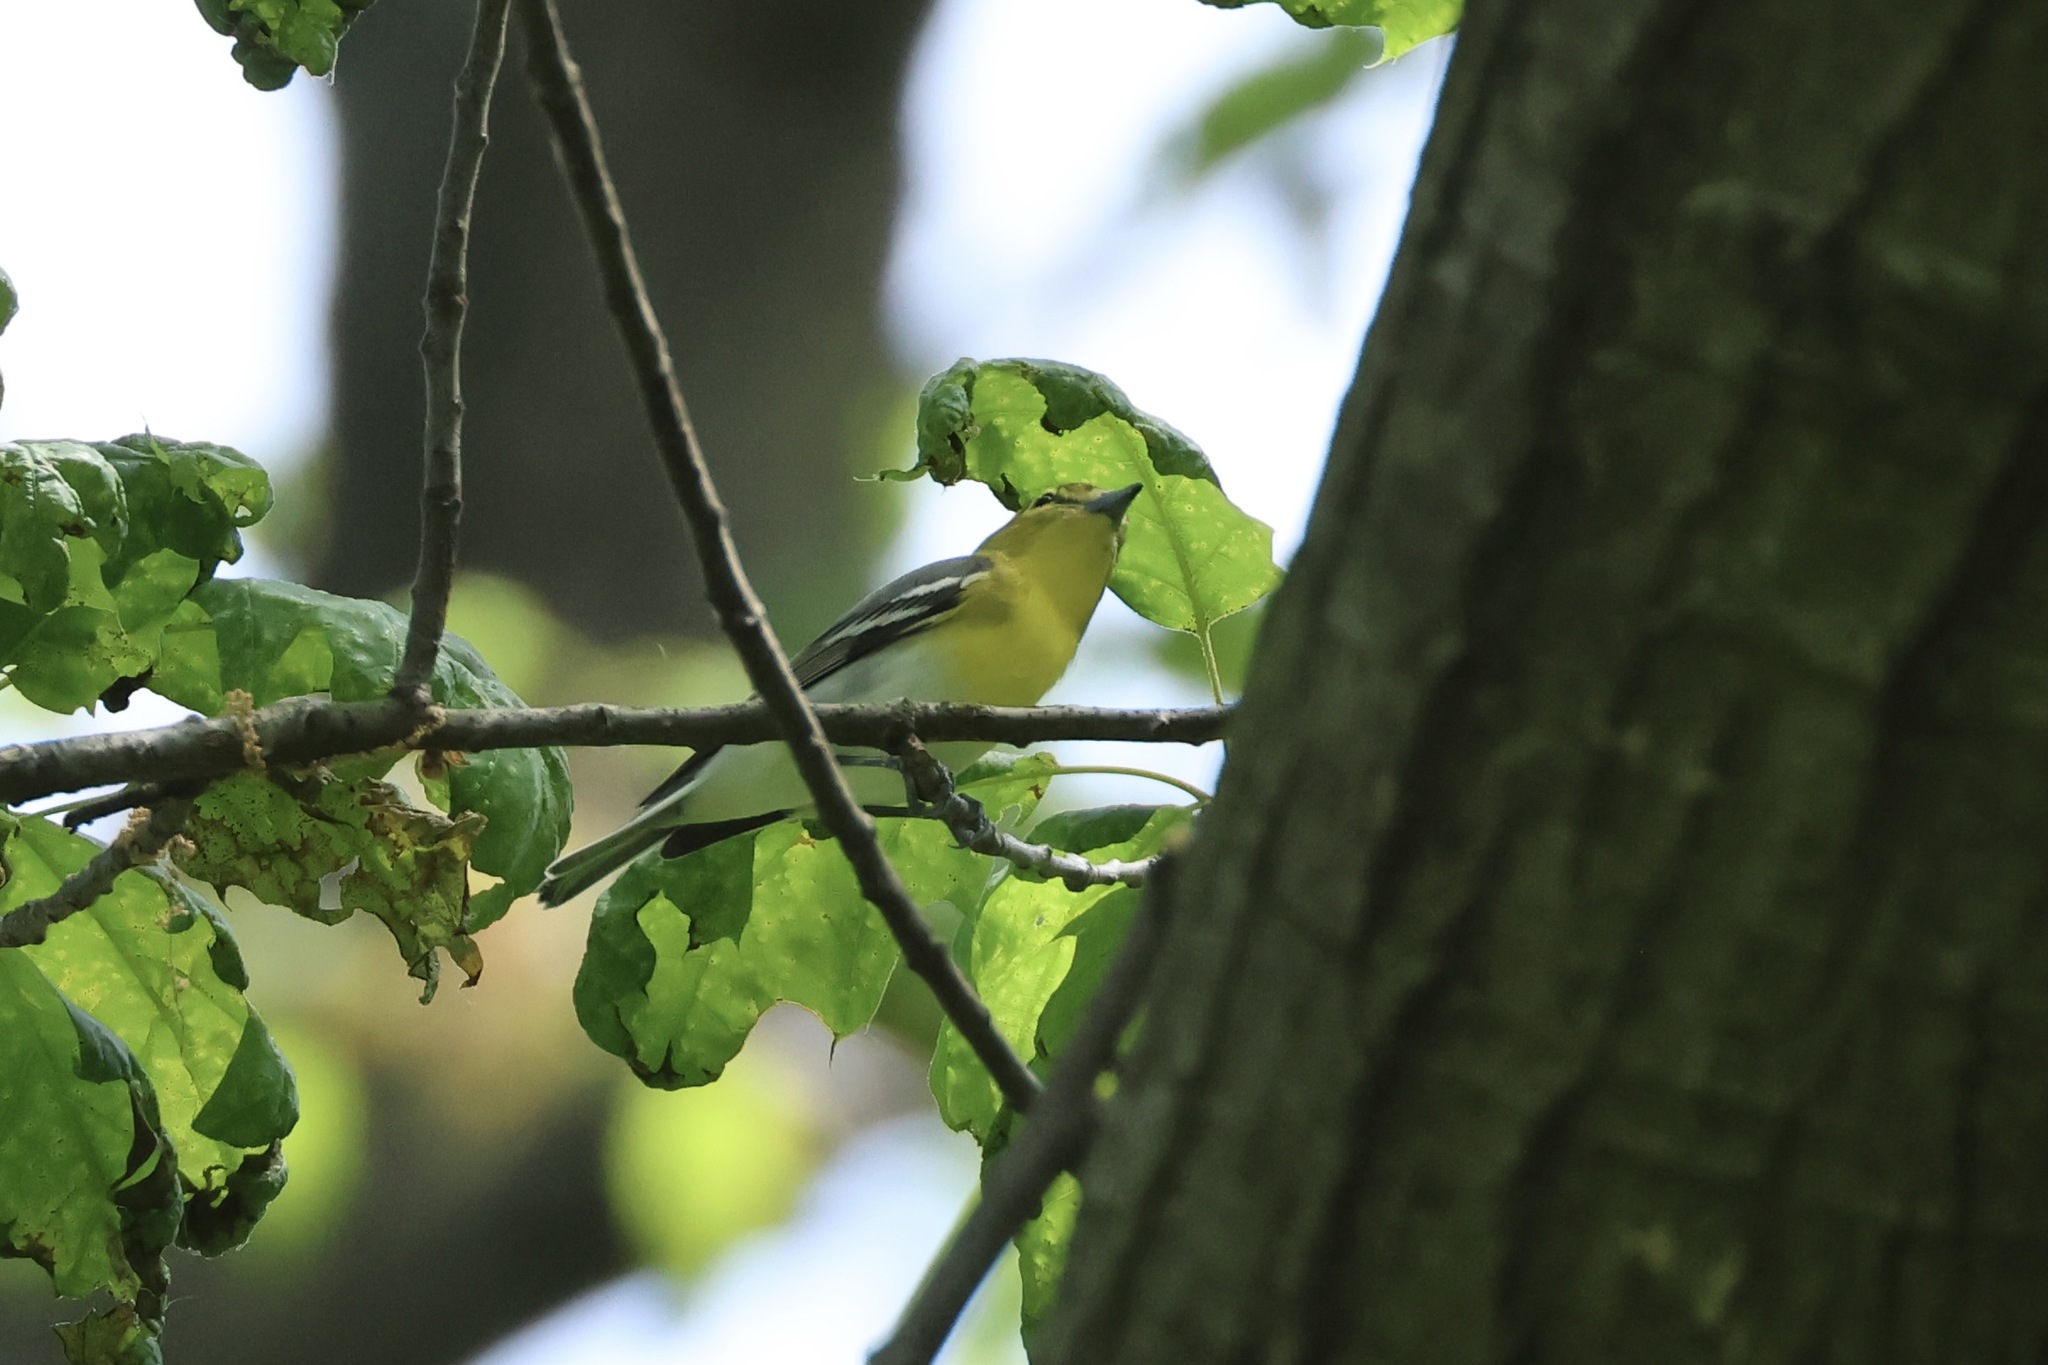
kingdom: Animalia
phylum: Chordata
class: Aves
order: Passeriformes
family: Vireonidae
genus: Vireo
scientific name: Vireo flavifrons
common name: Yellow-throated vireo
